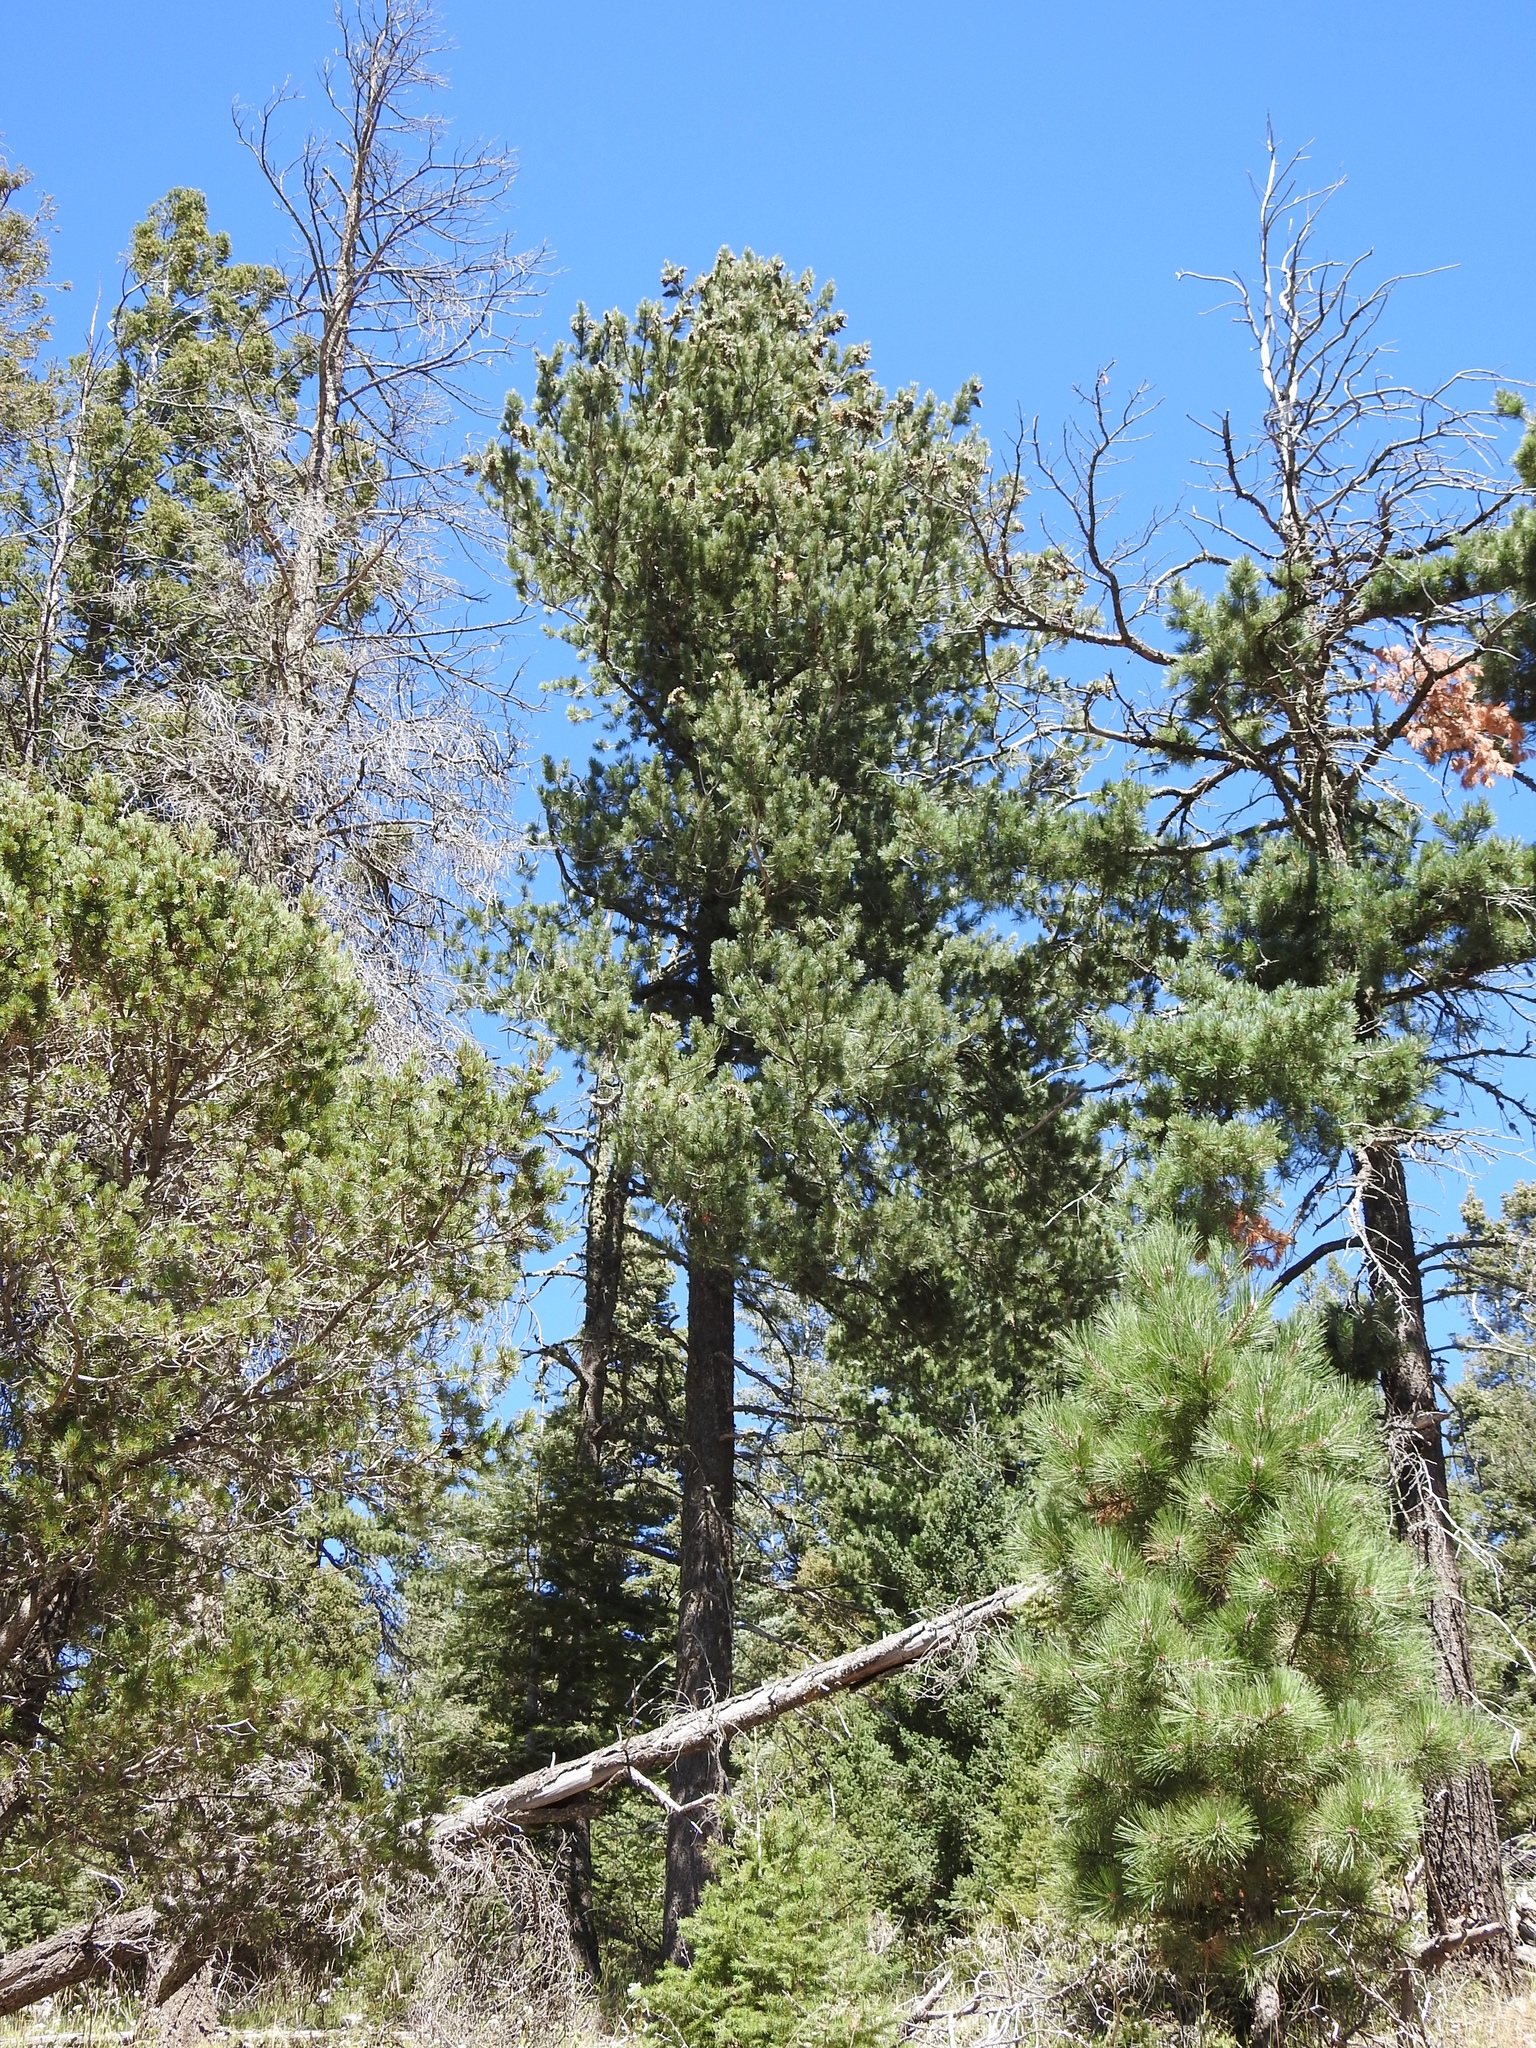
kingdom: Plantae
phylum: Tracheophyta
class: Pinopsida
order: Pinales
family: Pinaceae
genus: Pinus
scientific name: Pinus strobiformis
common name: Southwestern white pine
